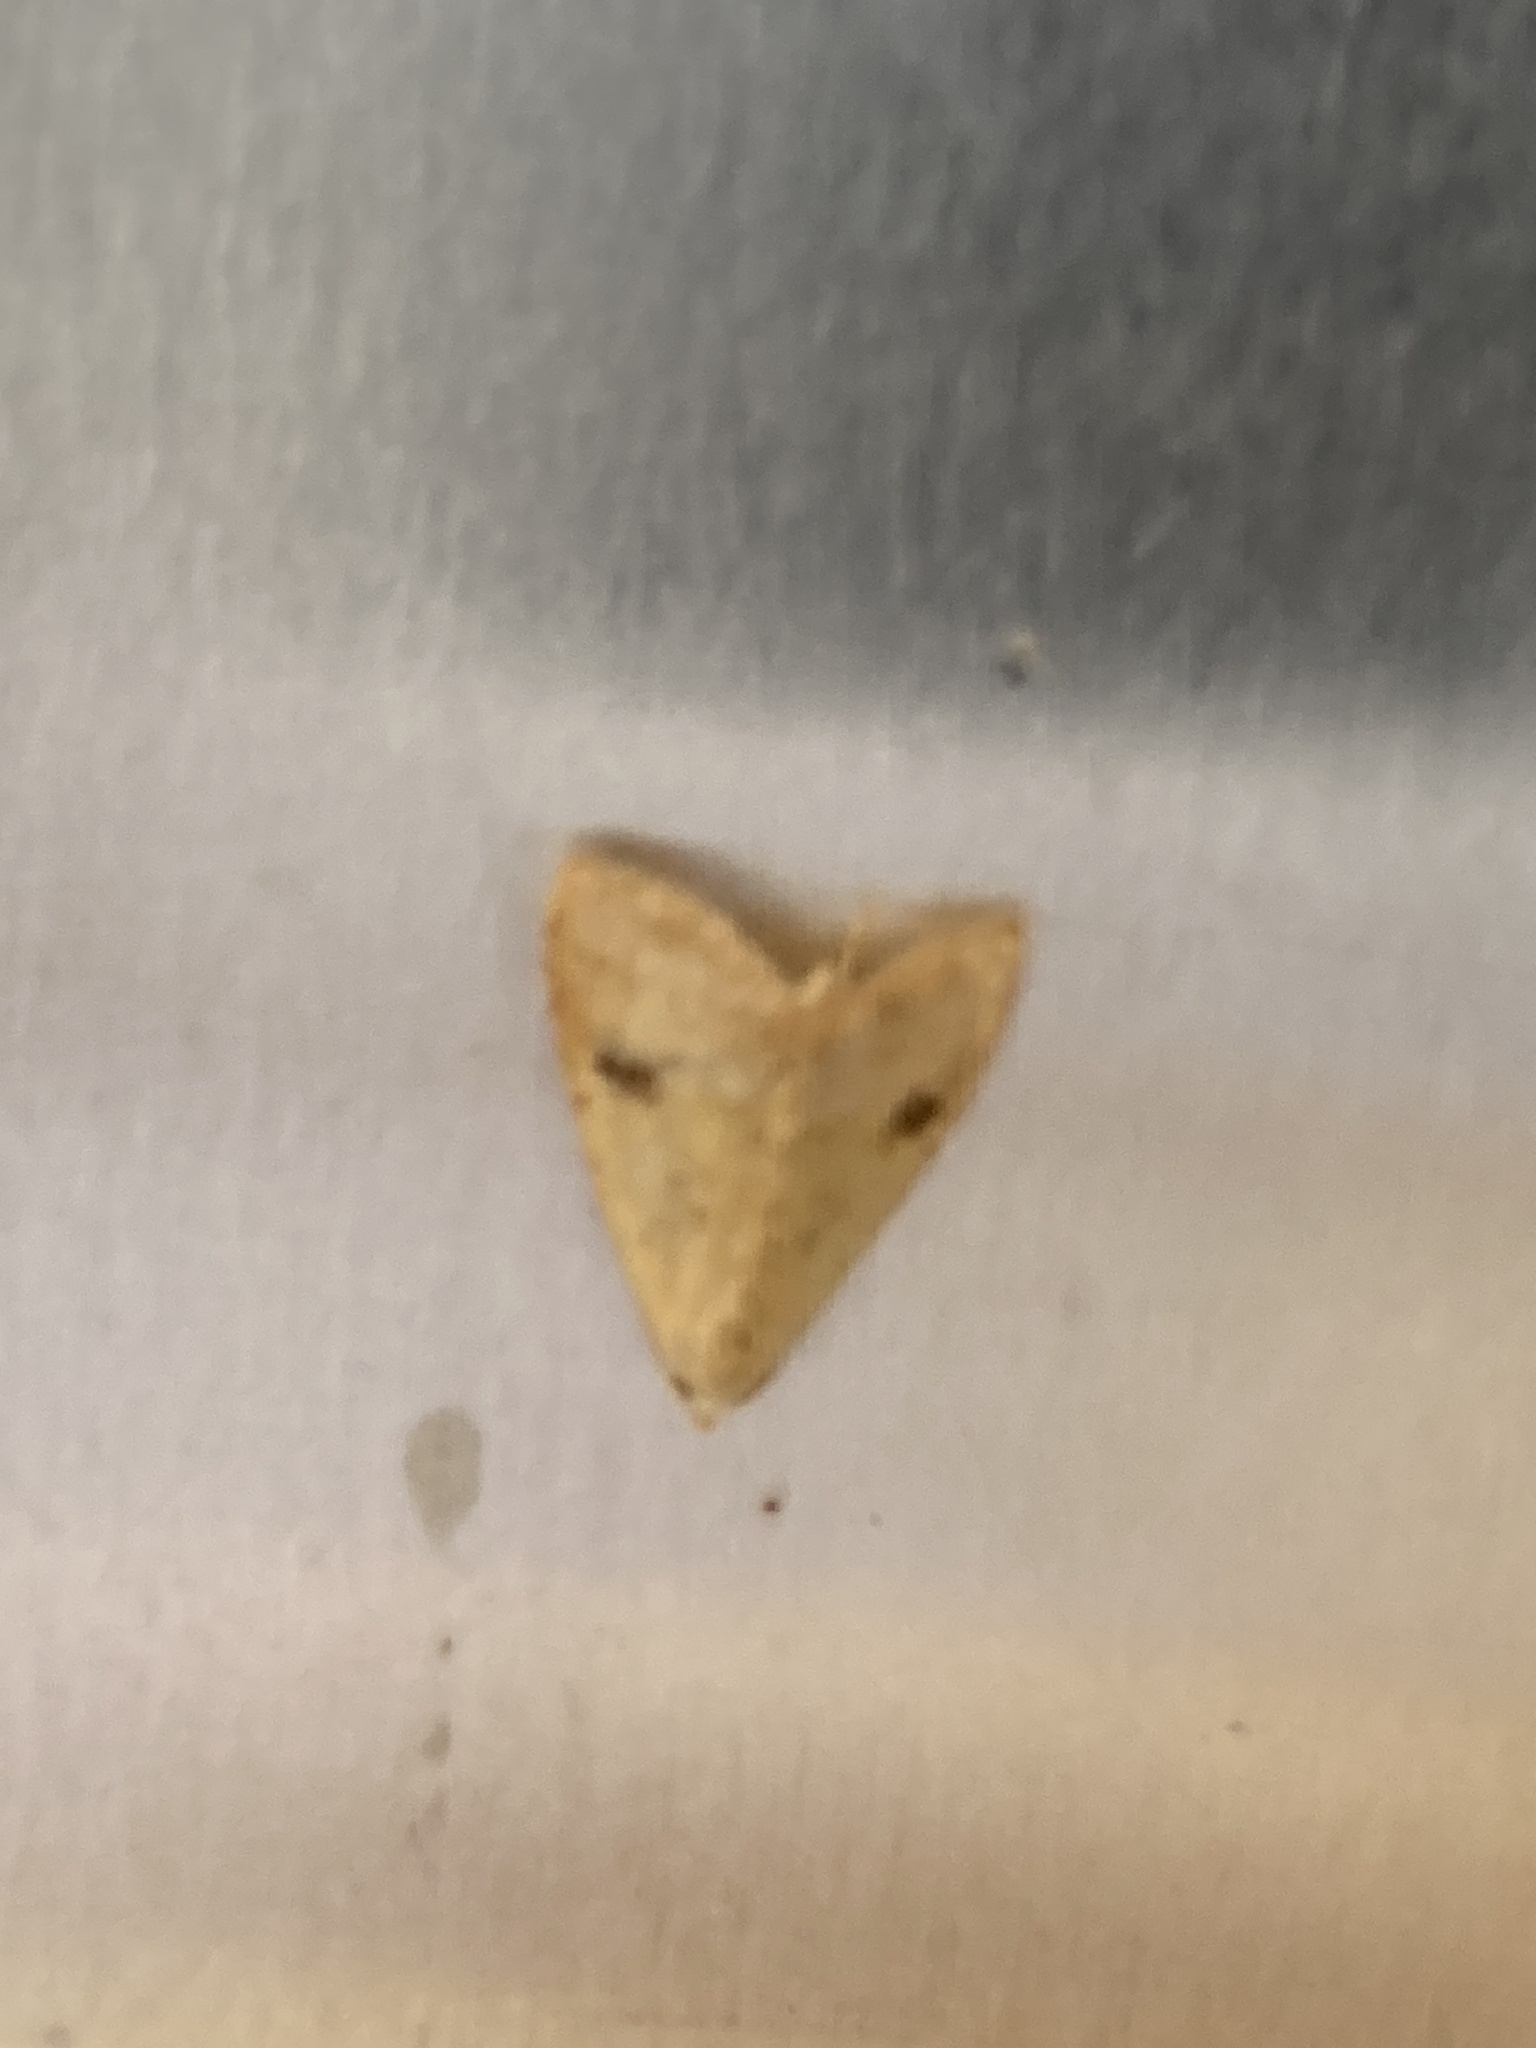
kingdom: Animalia
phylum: Arthropoda
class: Insecta
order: Lepidoptera
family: Erebidae
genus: Rivula
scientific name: Rivula sericealis
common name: Straw dot
